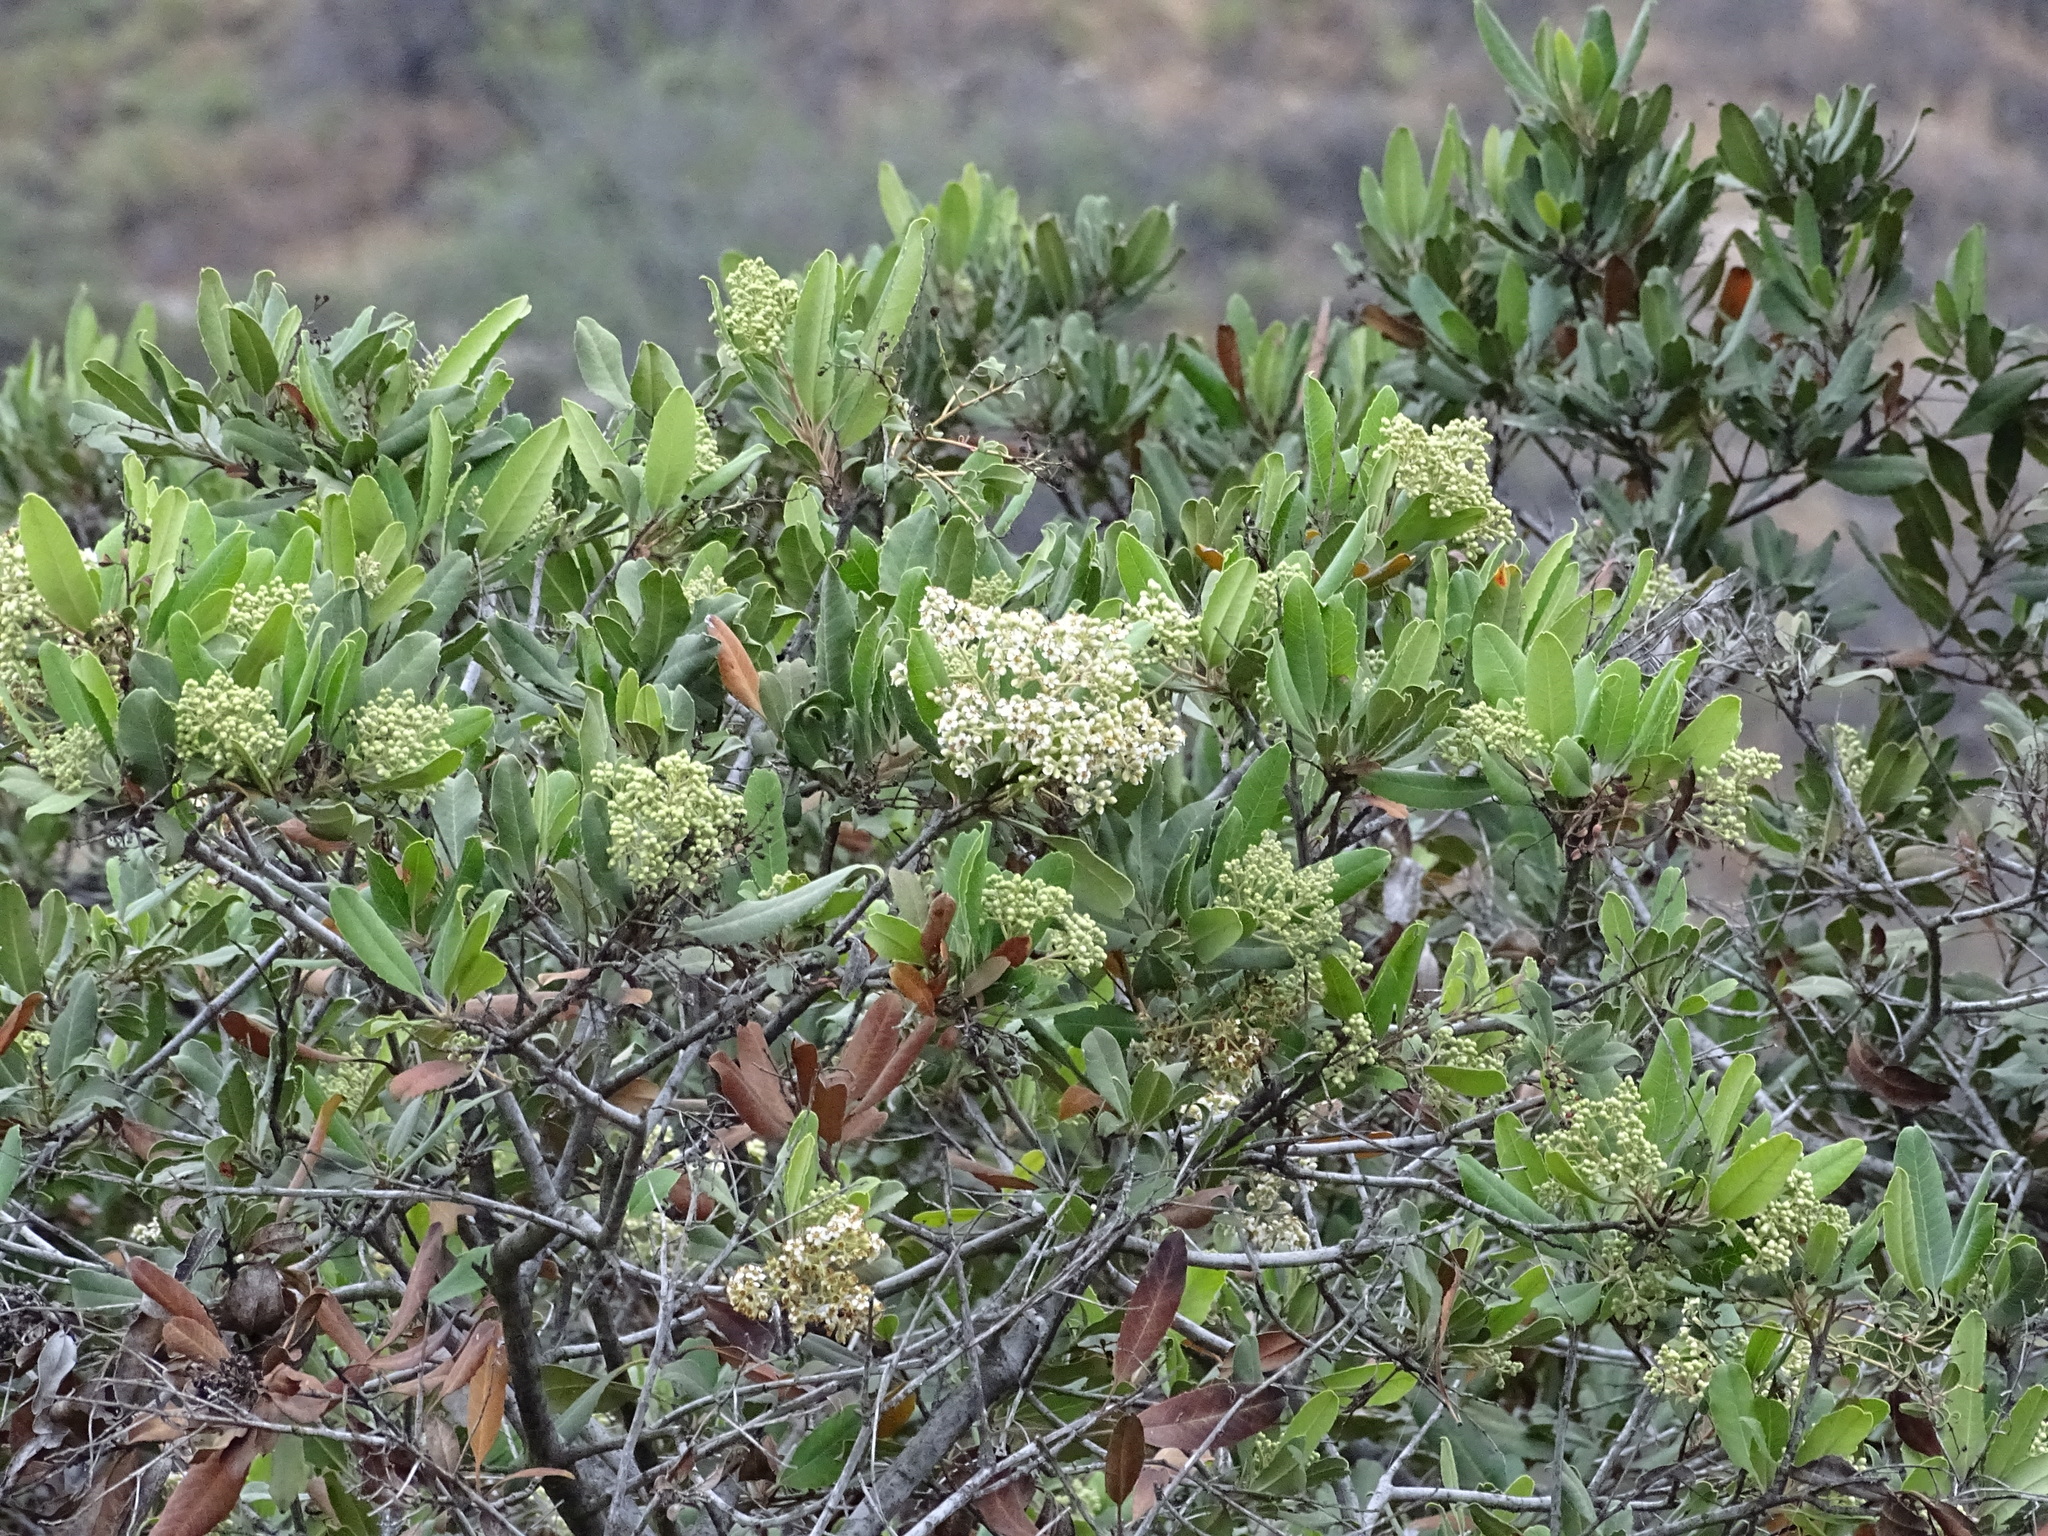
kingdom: Plantae
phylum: Tracheophyta
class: Magnoliopsida
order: Rosales
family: Rosaceae
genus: Heteromeles
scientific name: Heteromeles arbutifolia
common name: California-holly
